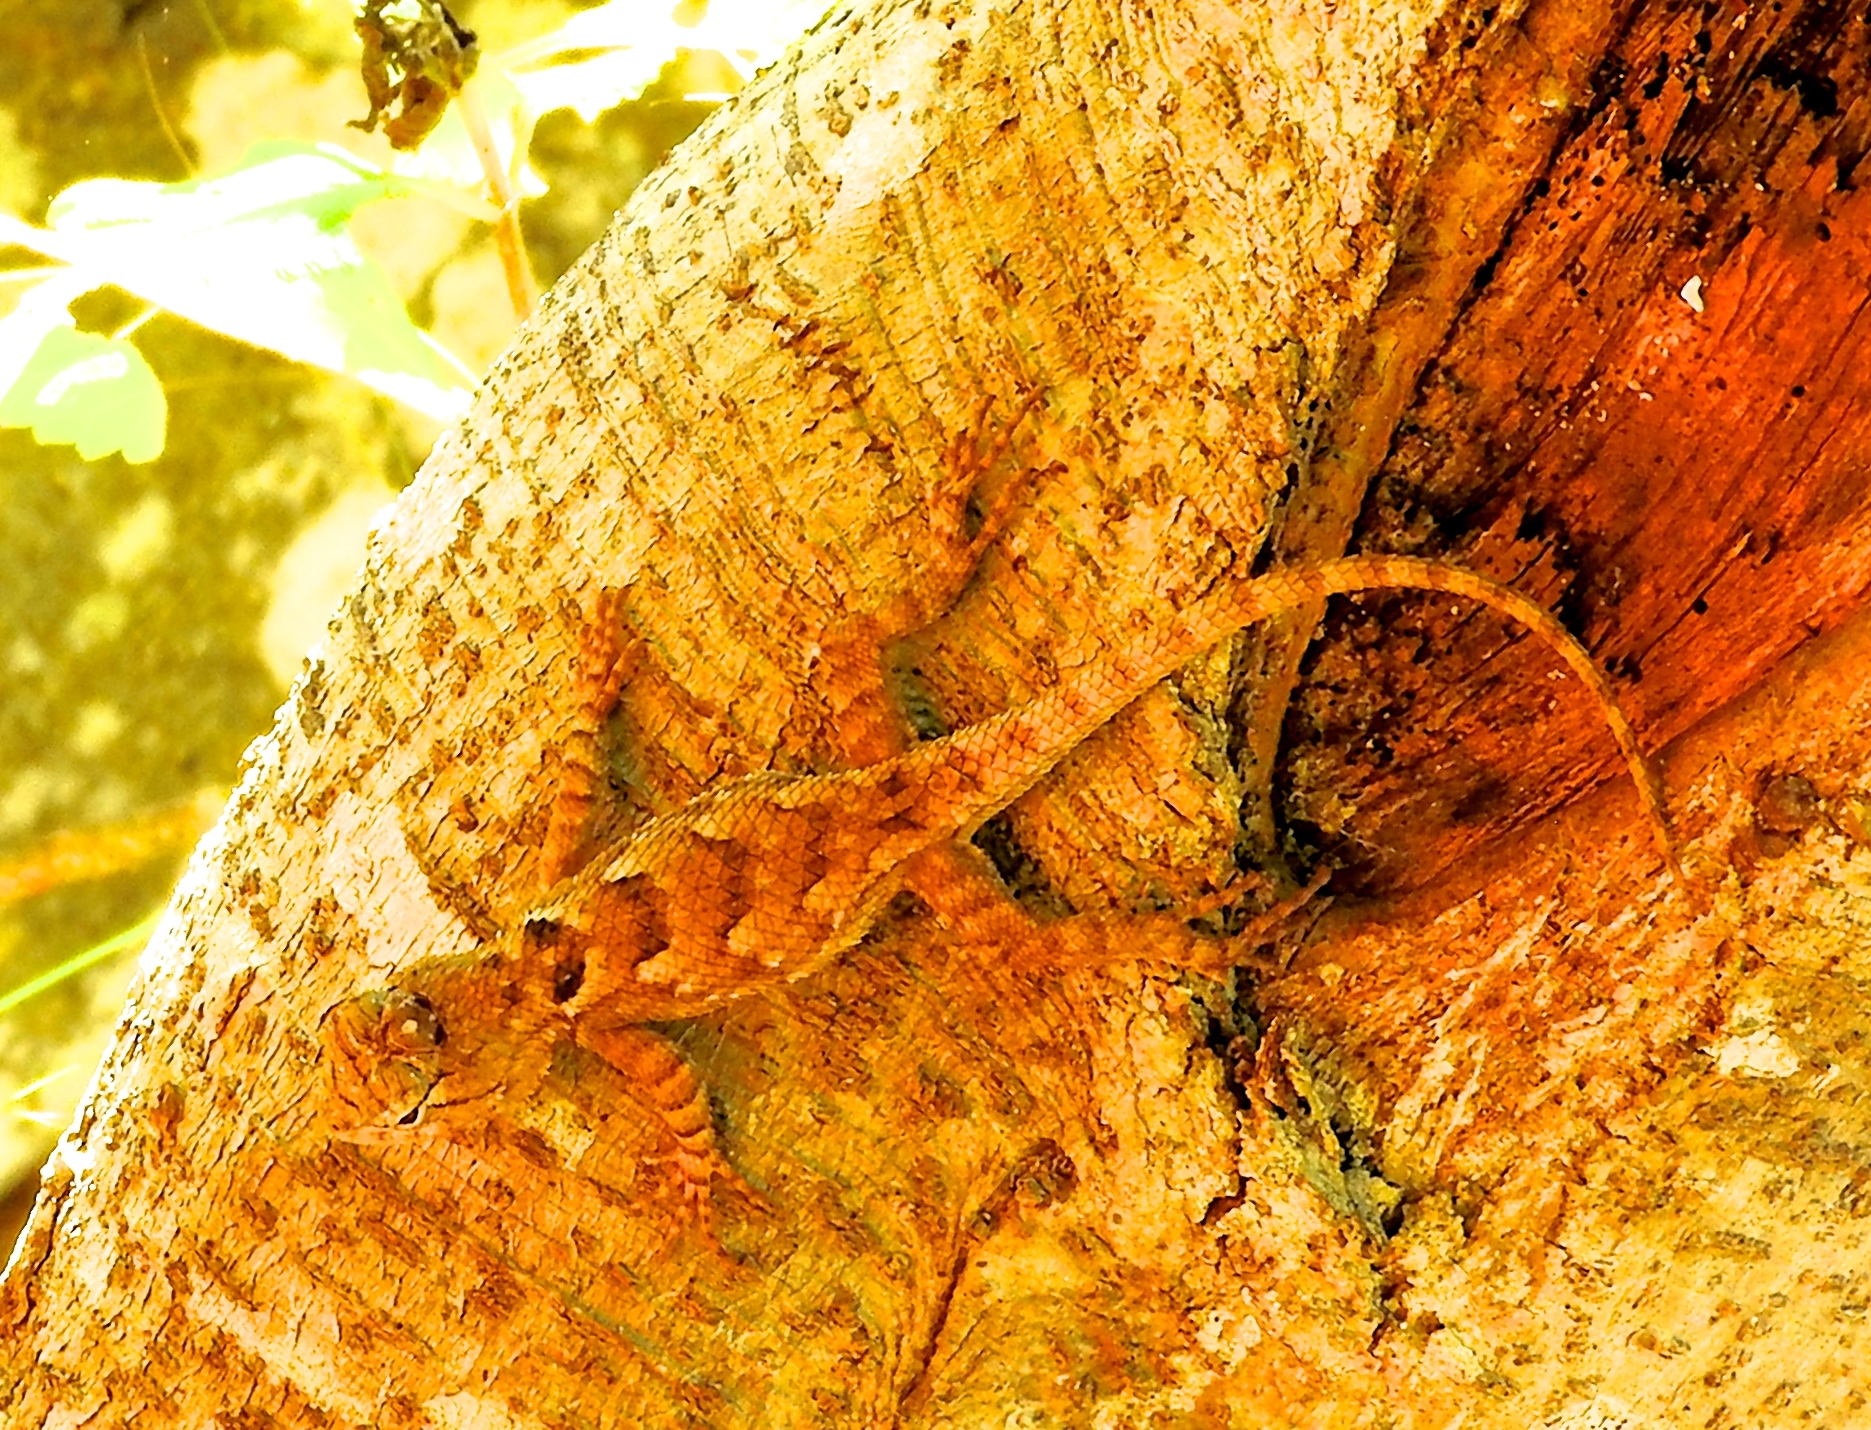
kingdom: Animalia
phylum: Chordata
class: Squamata
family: Phrynosomatidae
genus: Sceloporus
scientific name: Sceloporus clarkii
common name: Clark's spiny lizard
